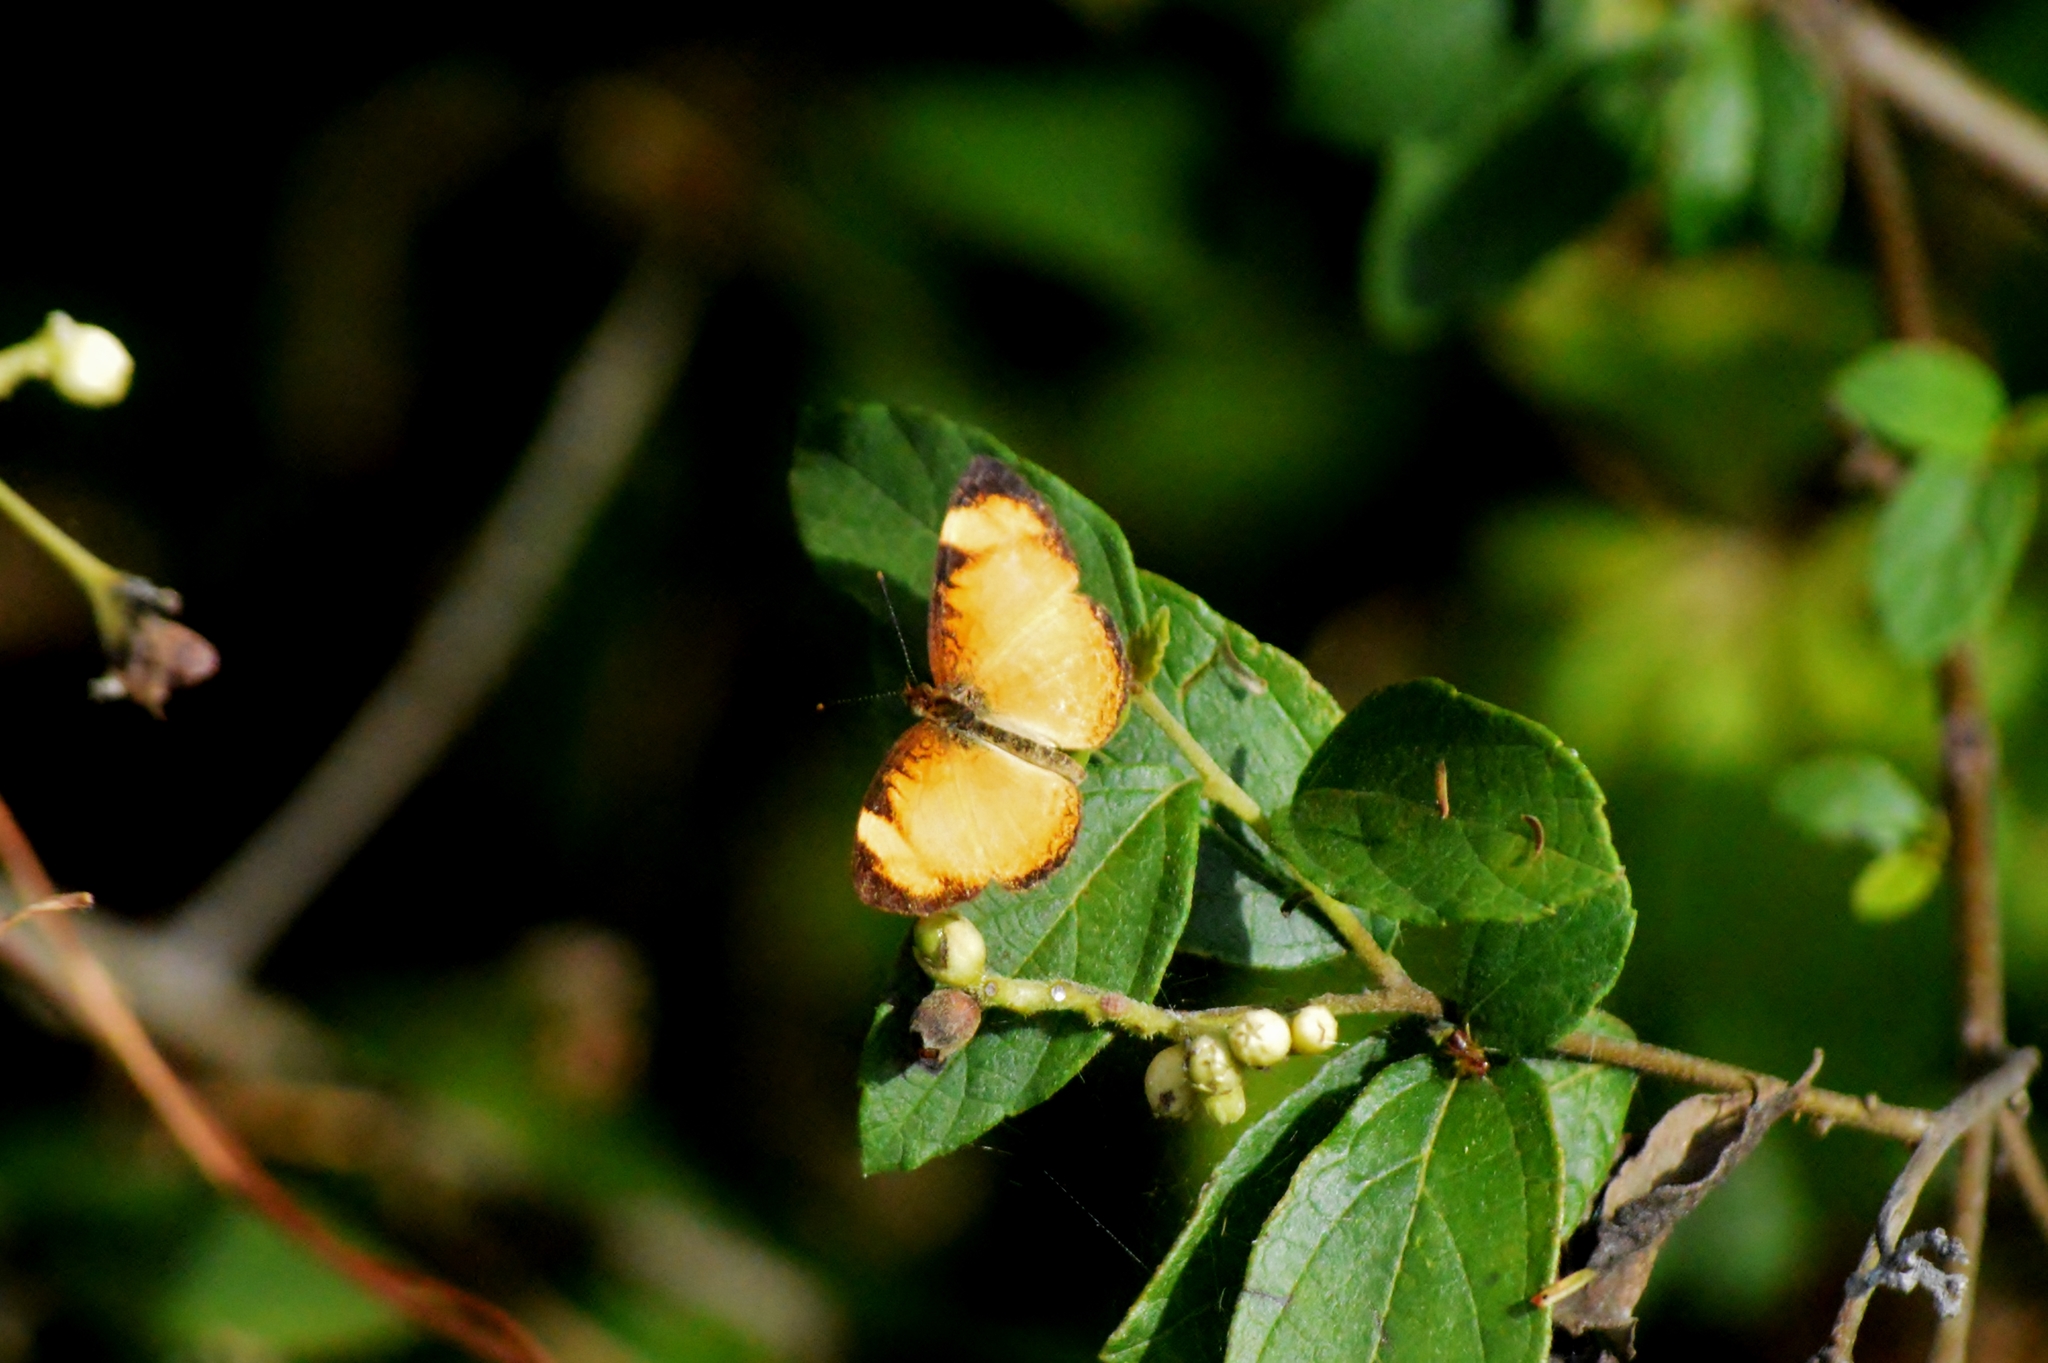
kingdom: Animalia
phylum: Arthropoda
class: Insecta
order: Lepidoptera
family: Nymphalidae
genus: Tegosa
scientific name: Tegosa claudina
